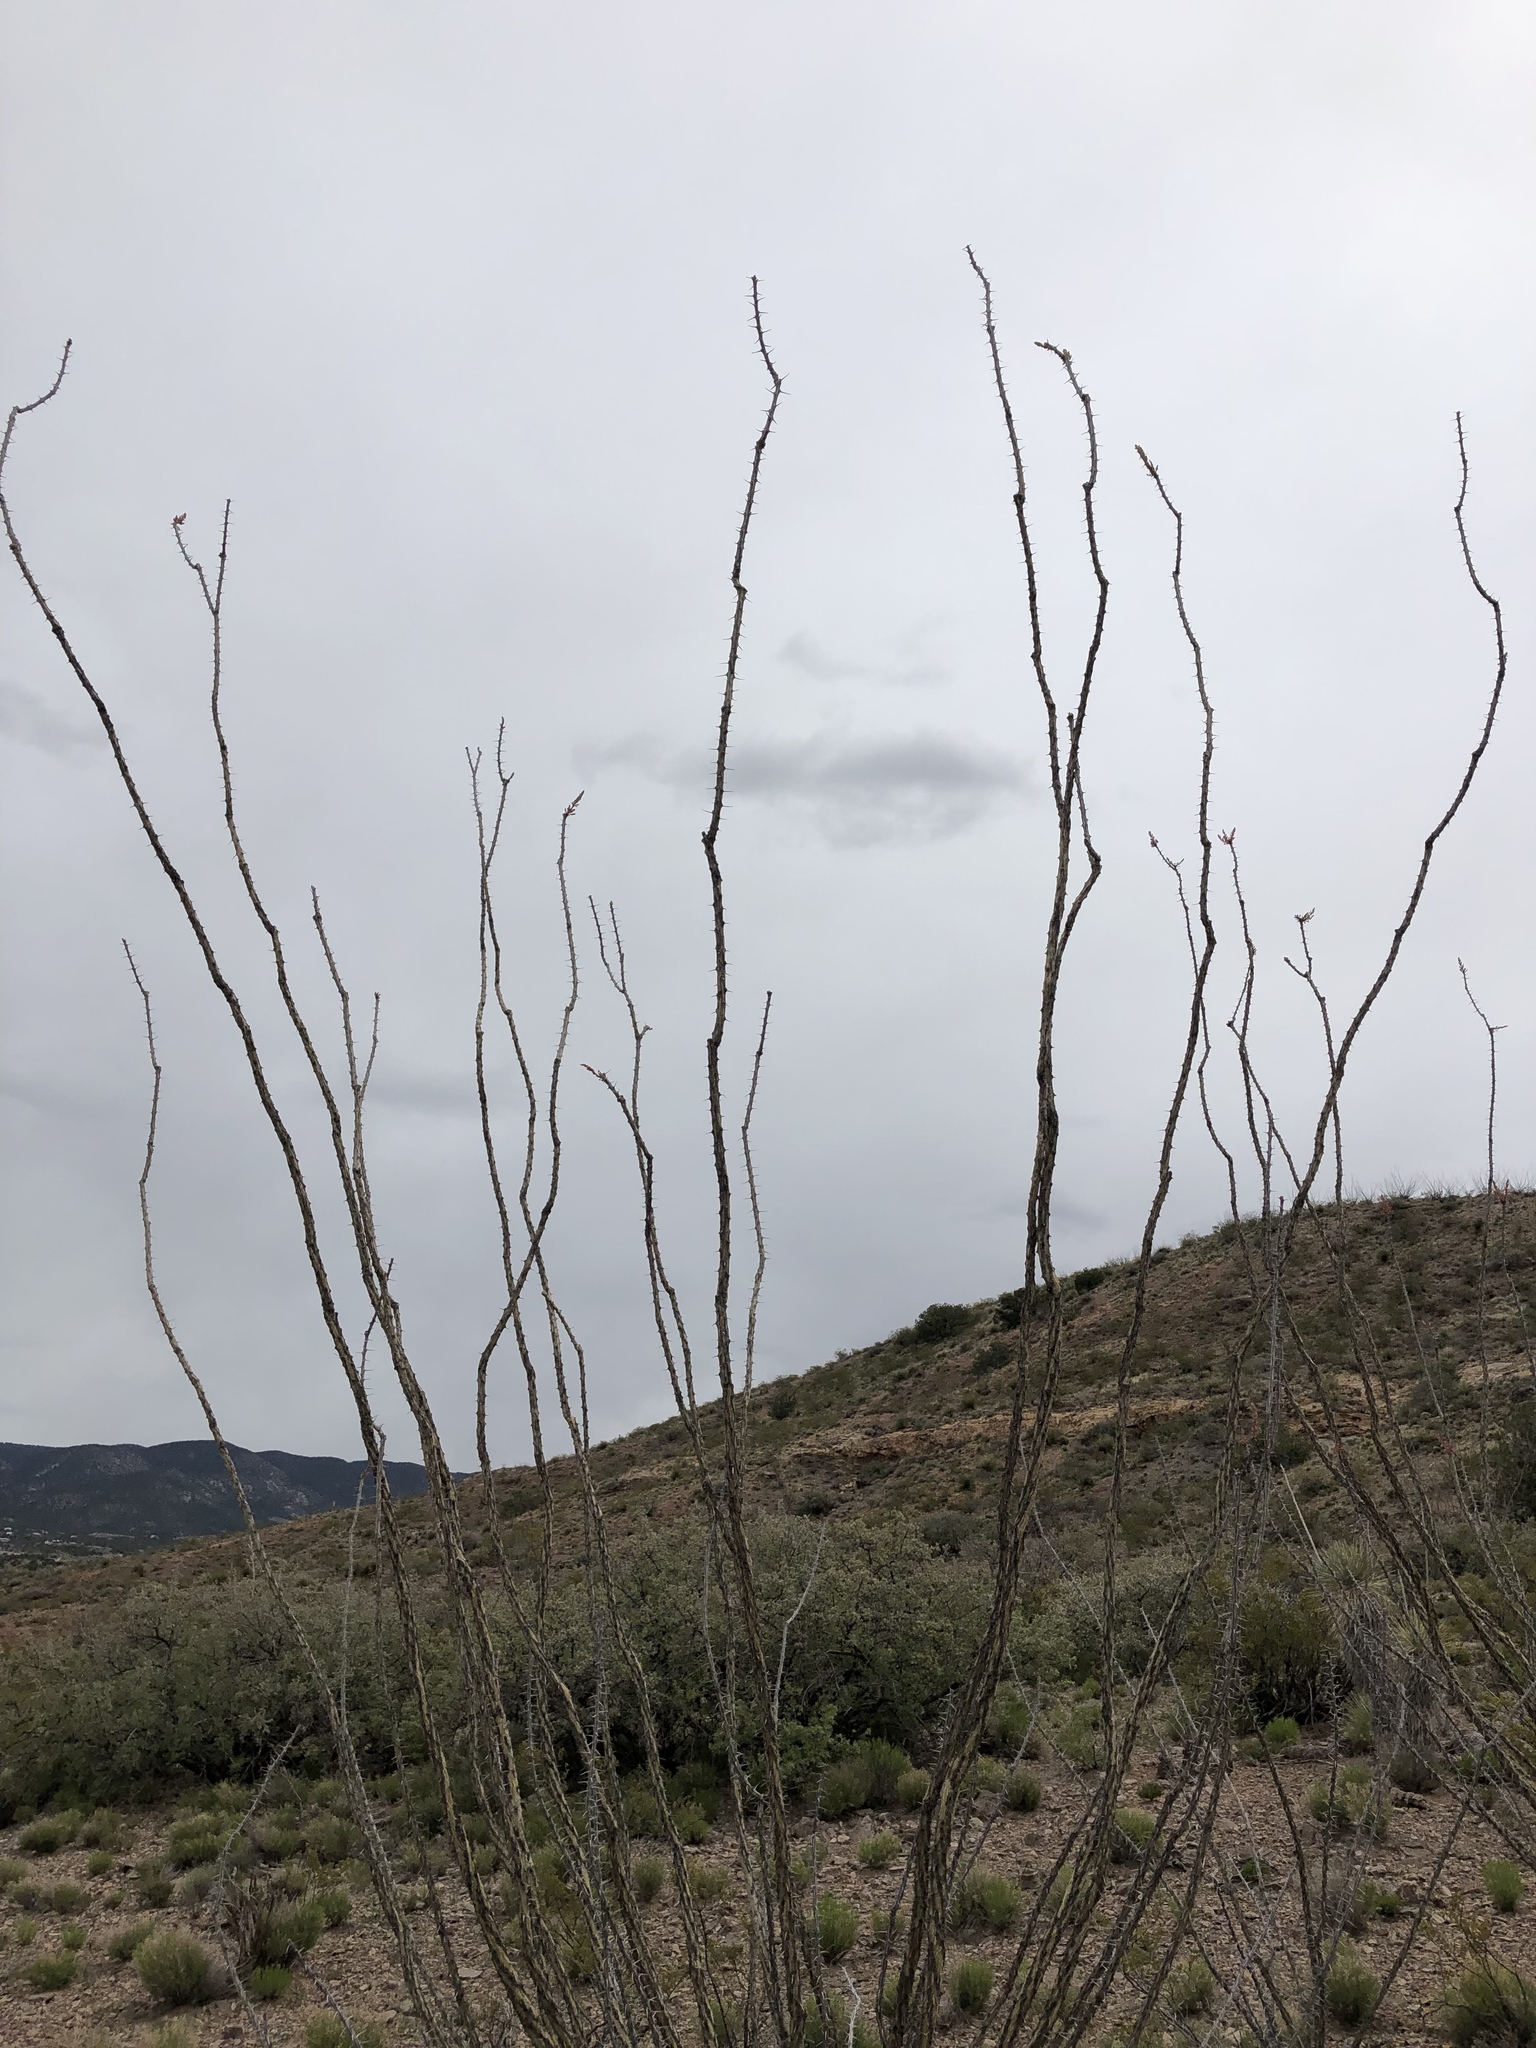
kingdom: Plantae
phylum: Tracheophyta
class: Magnoliopsida
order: Ericales
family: Fouquieriaceae
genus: Fouquieria
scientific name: Fouquieria splendens
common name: Vine-cactus
